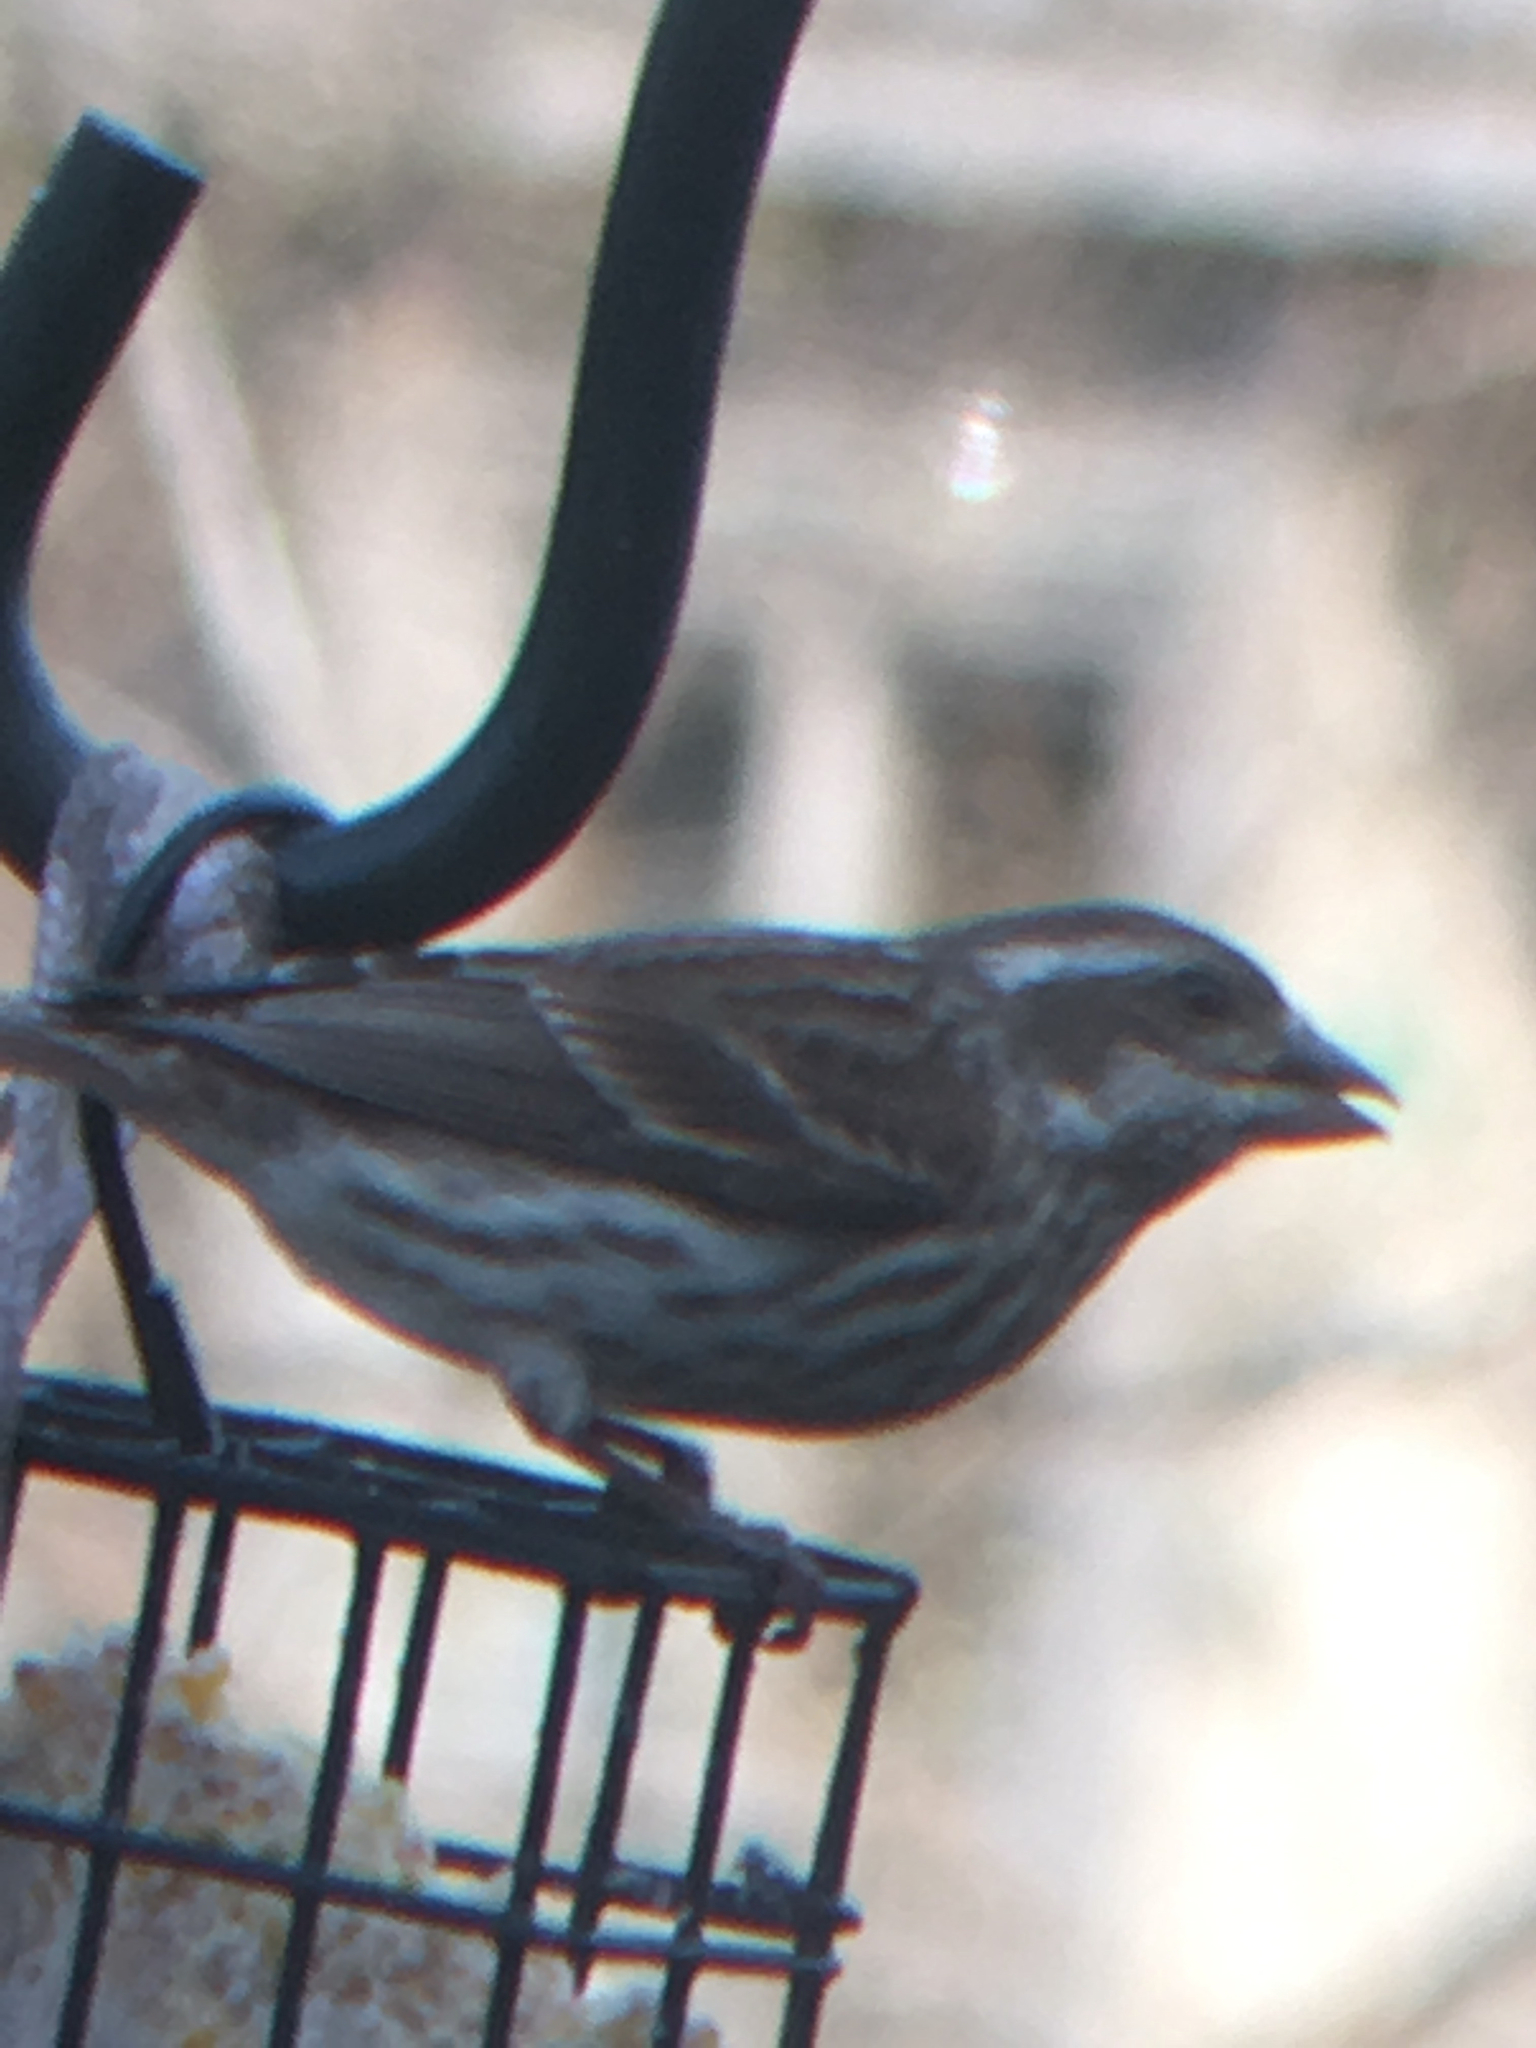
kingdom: Animalia
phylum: Chordata
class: Aves
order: Passeriformes
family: Fringillidae
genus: Haemorhous
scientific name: Haemorhous purpureus
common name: Purple finch
